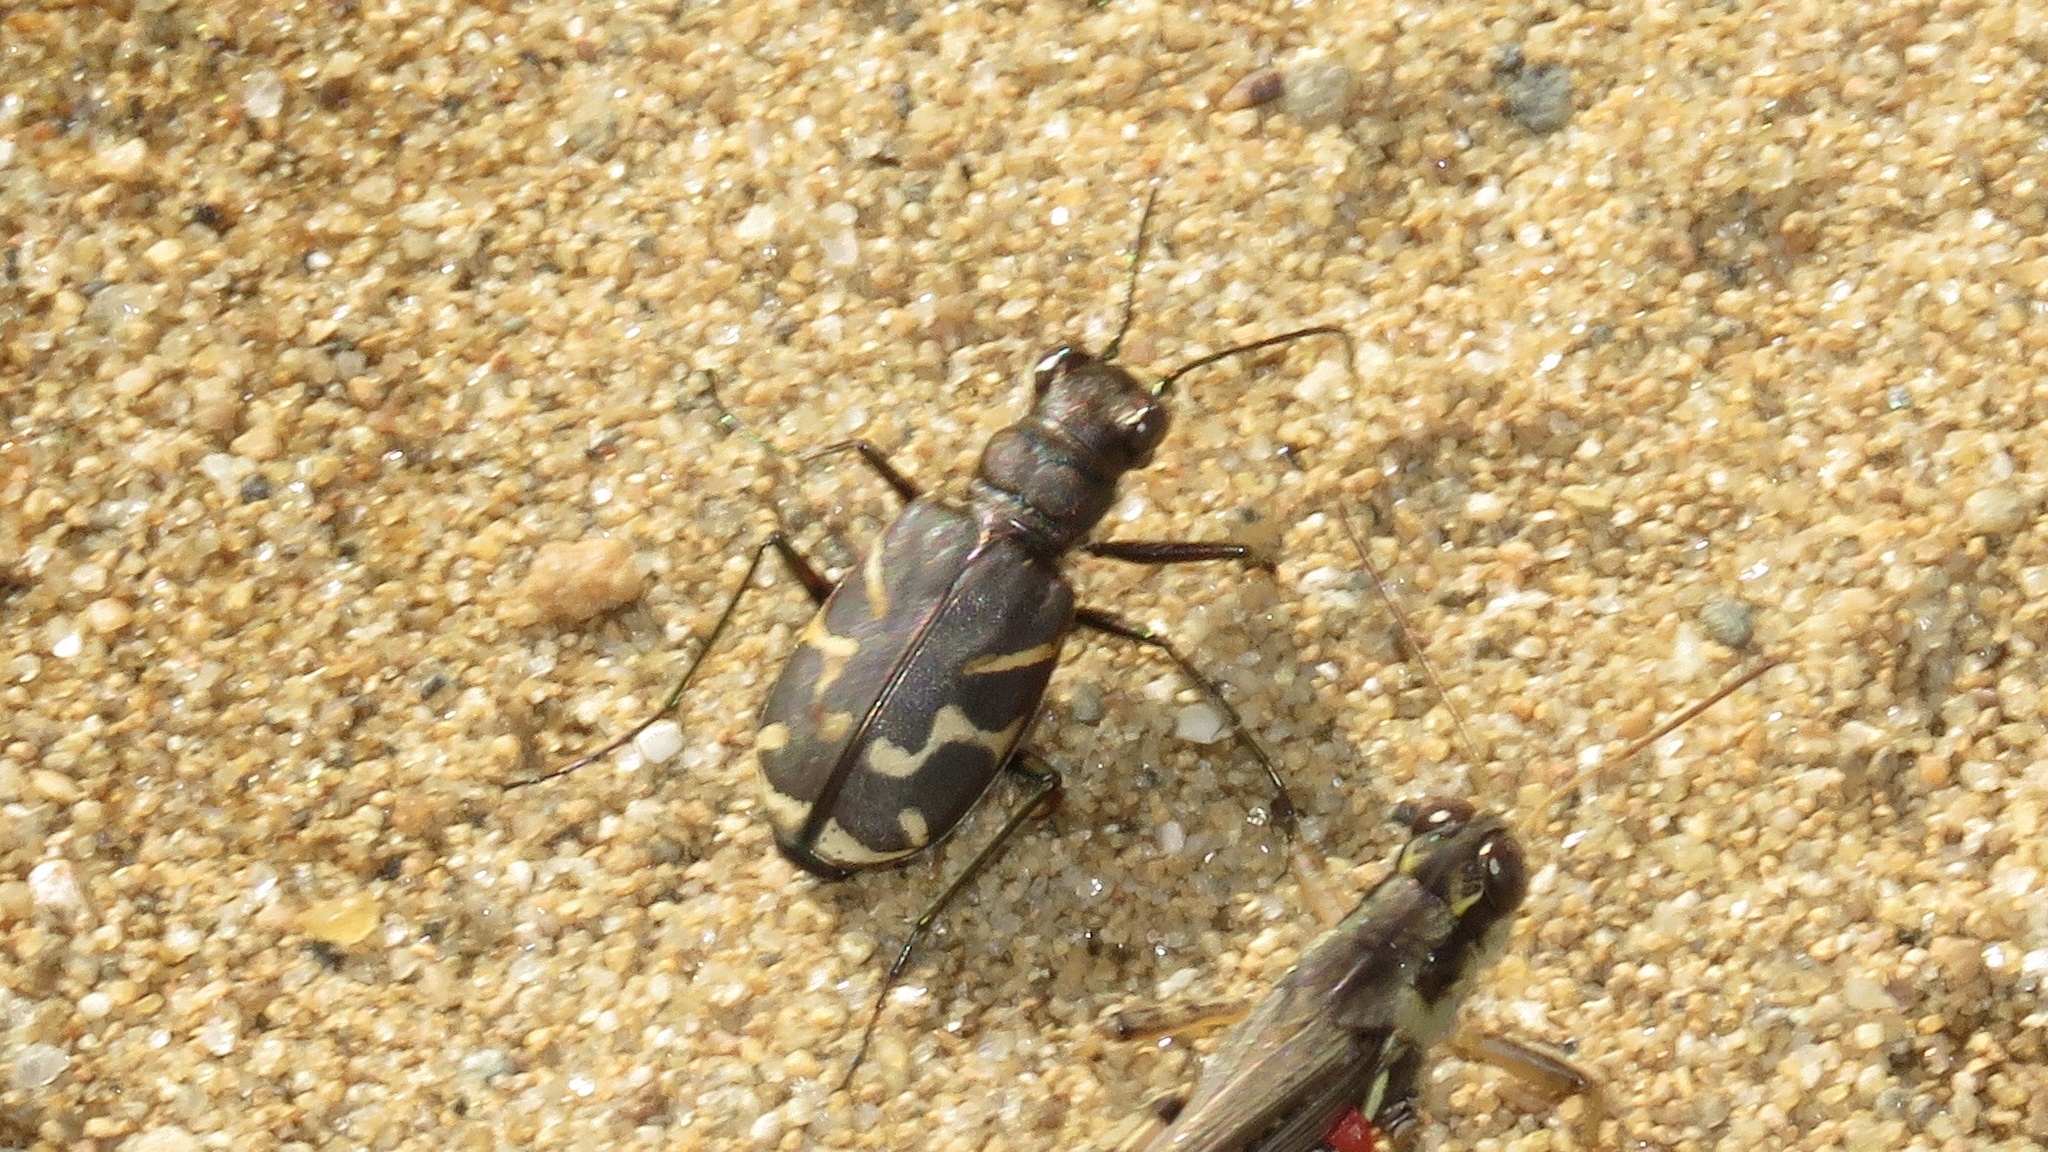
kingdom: Animalia
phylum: Arthropoda
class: Insecta
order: Coleoptera
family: Carabidae
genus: Cicindela
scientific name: Cicindela tranquebarica
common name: Oblique-lined tiger beetle
